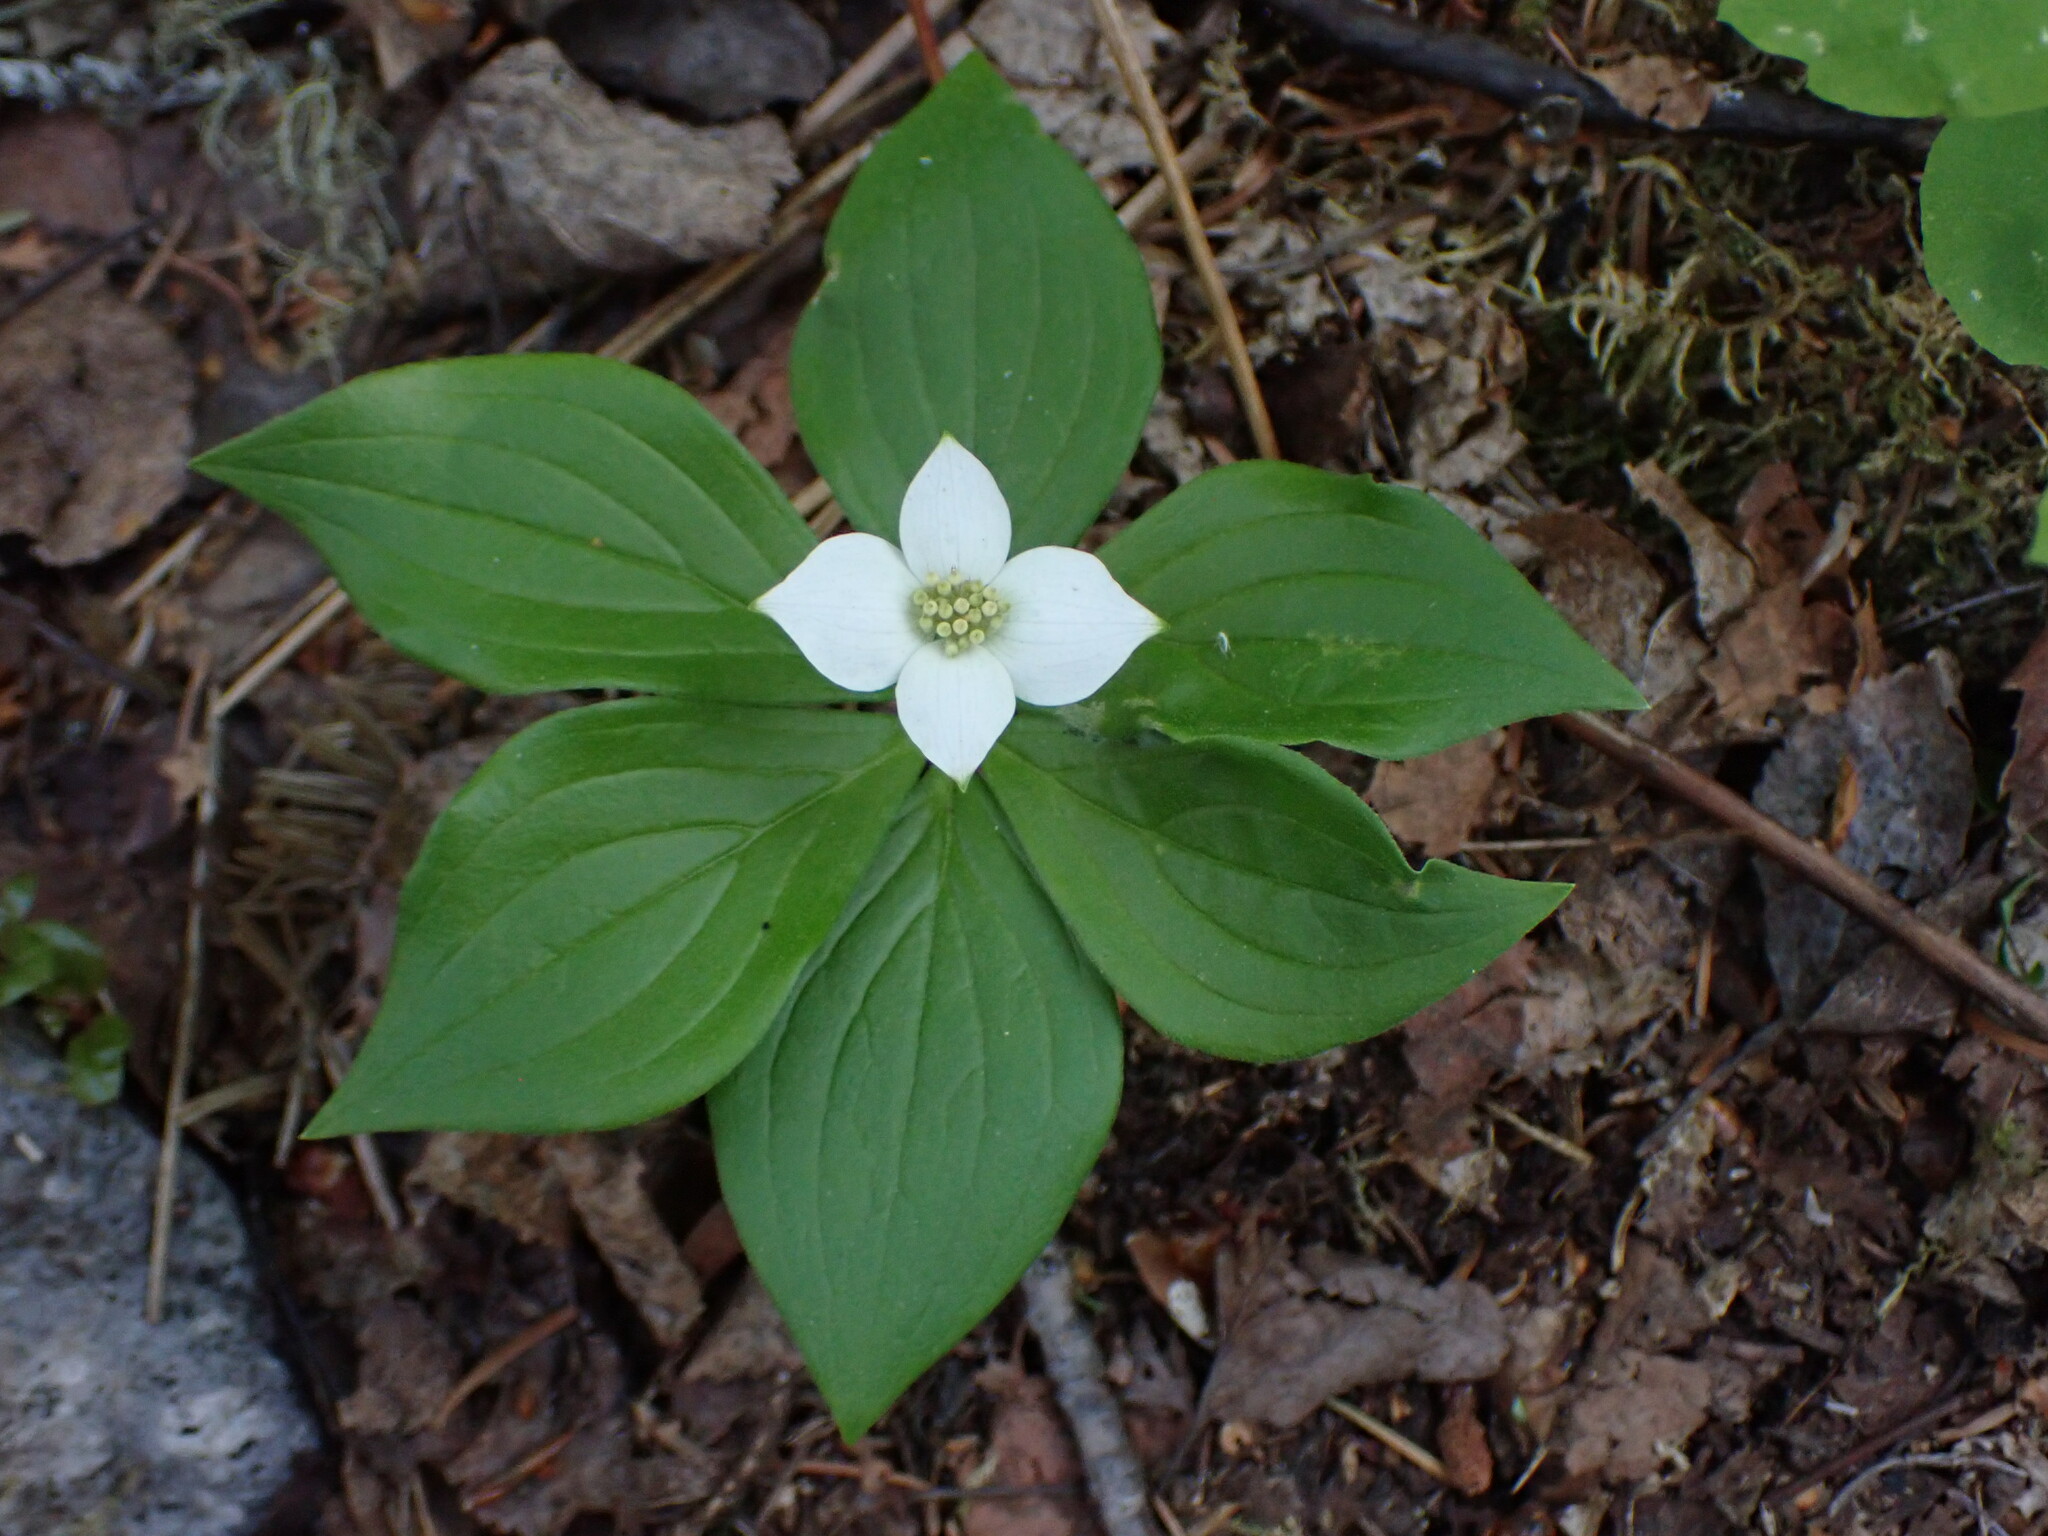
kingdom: Plantae
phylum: Tracheophyta
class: Magnoliopsida
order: Cornales
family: Cornaceae
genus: Cornus
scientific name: Cornus canadensis
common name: Creeping dogwood
